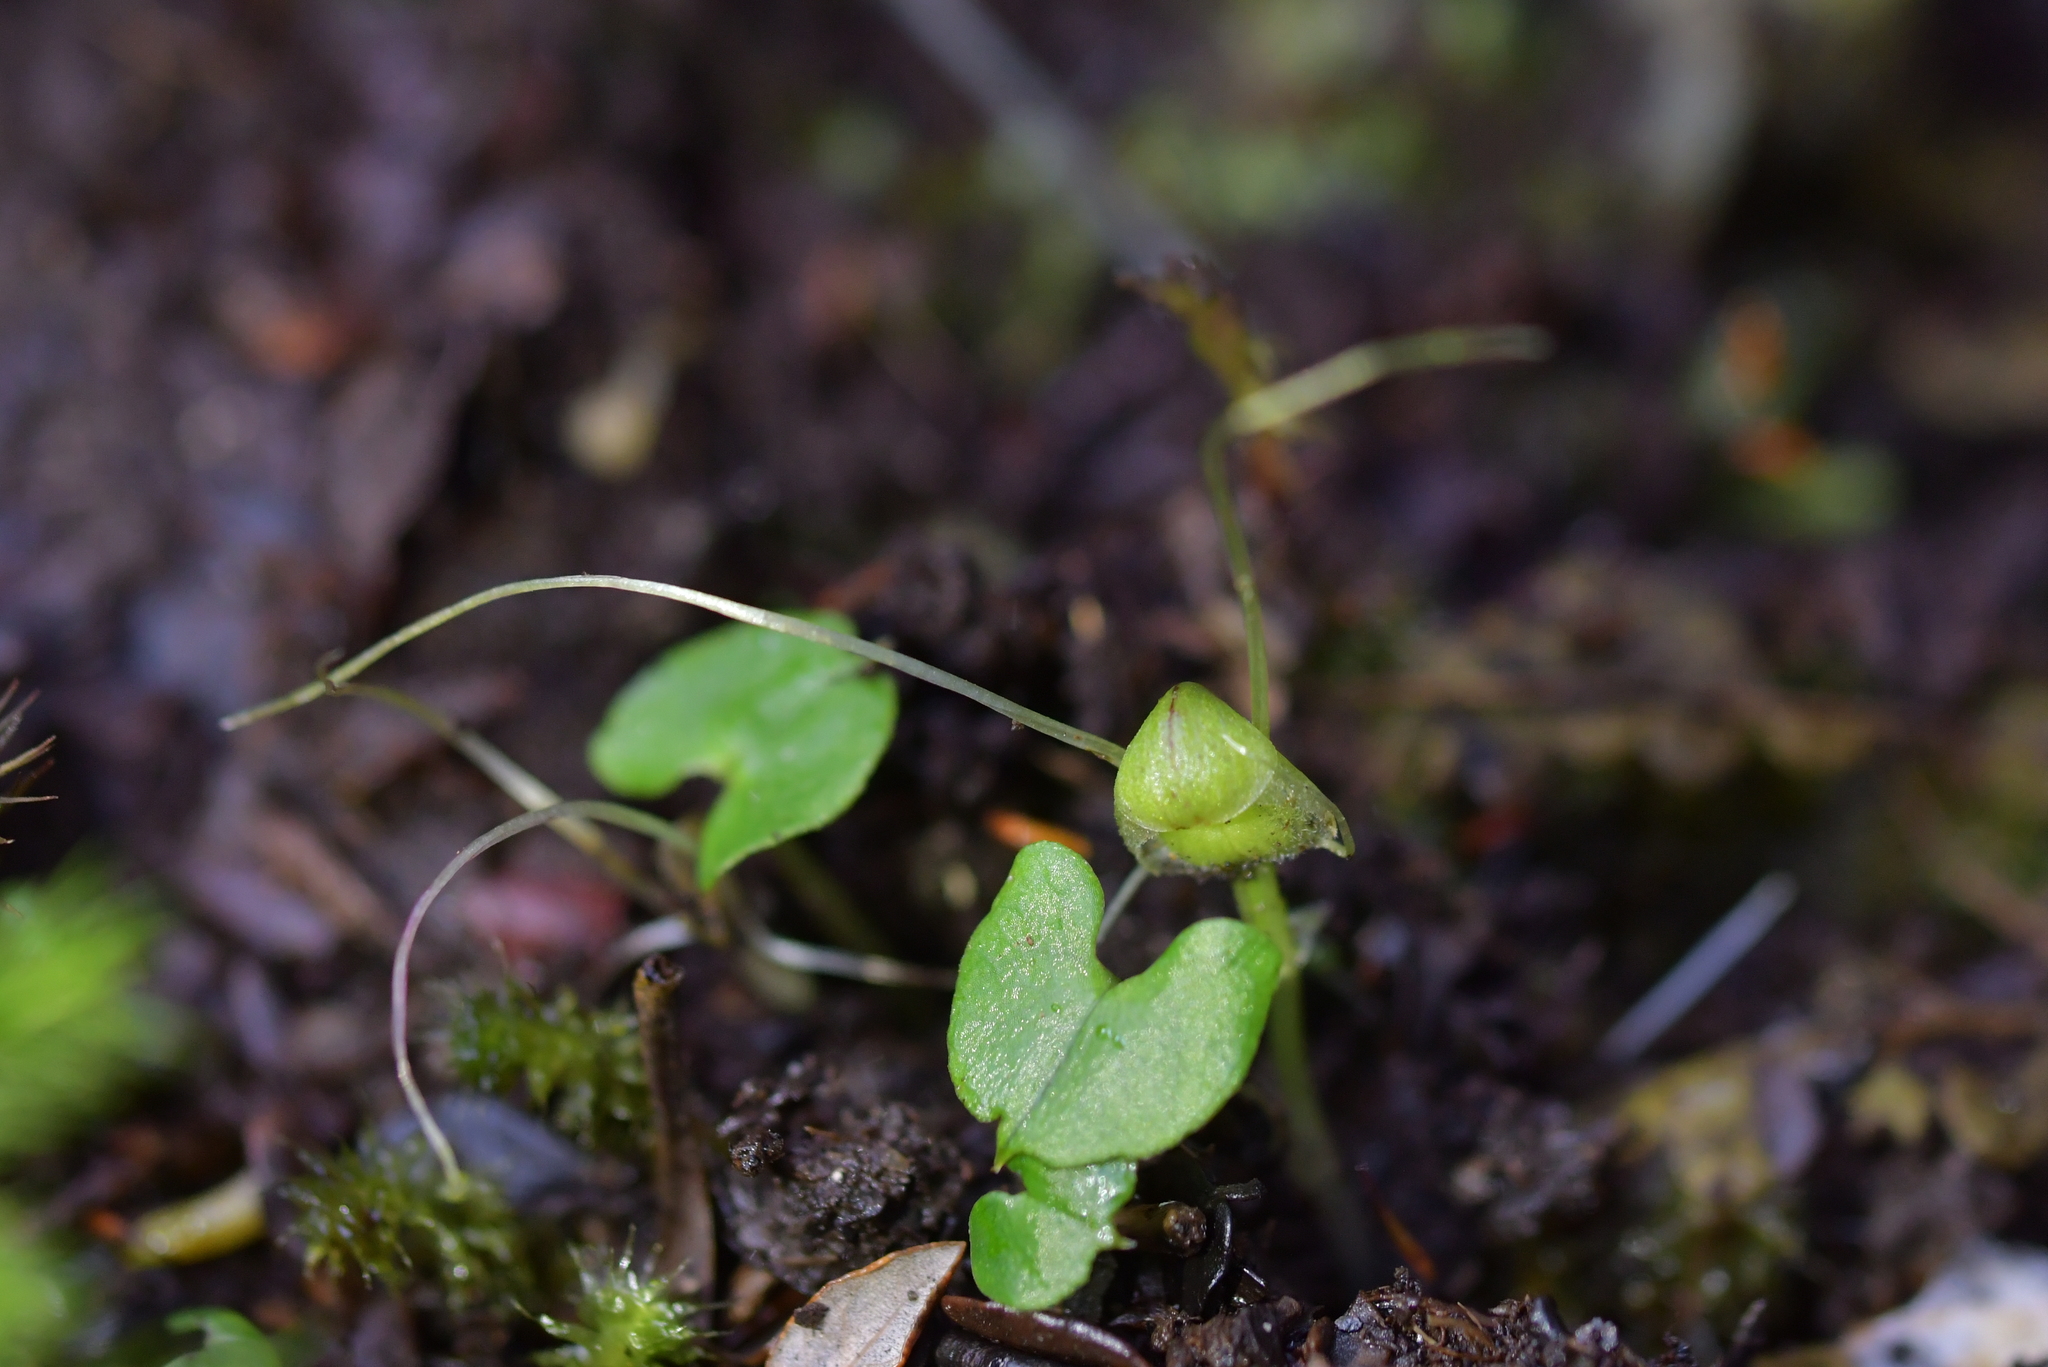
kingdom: Plantae
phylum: Tracheophyta
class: Liliopsida
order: Asparagales
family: Orchidaceae
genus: Corybas
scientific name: Corybas walliae
